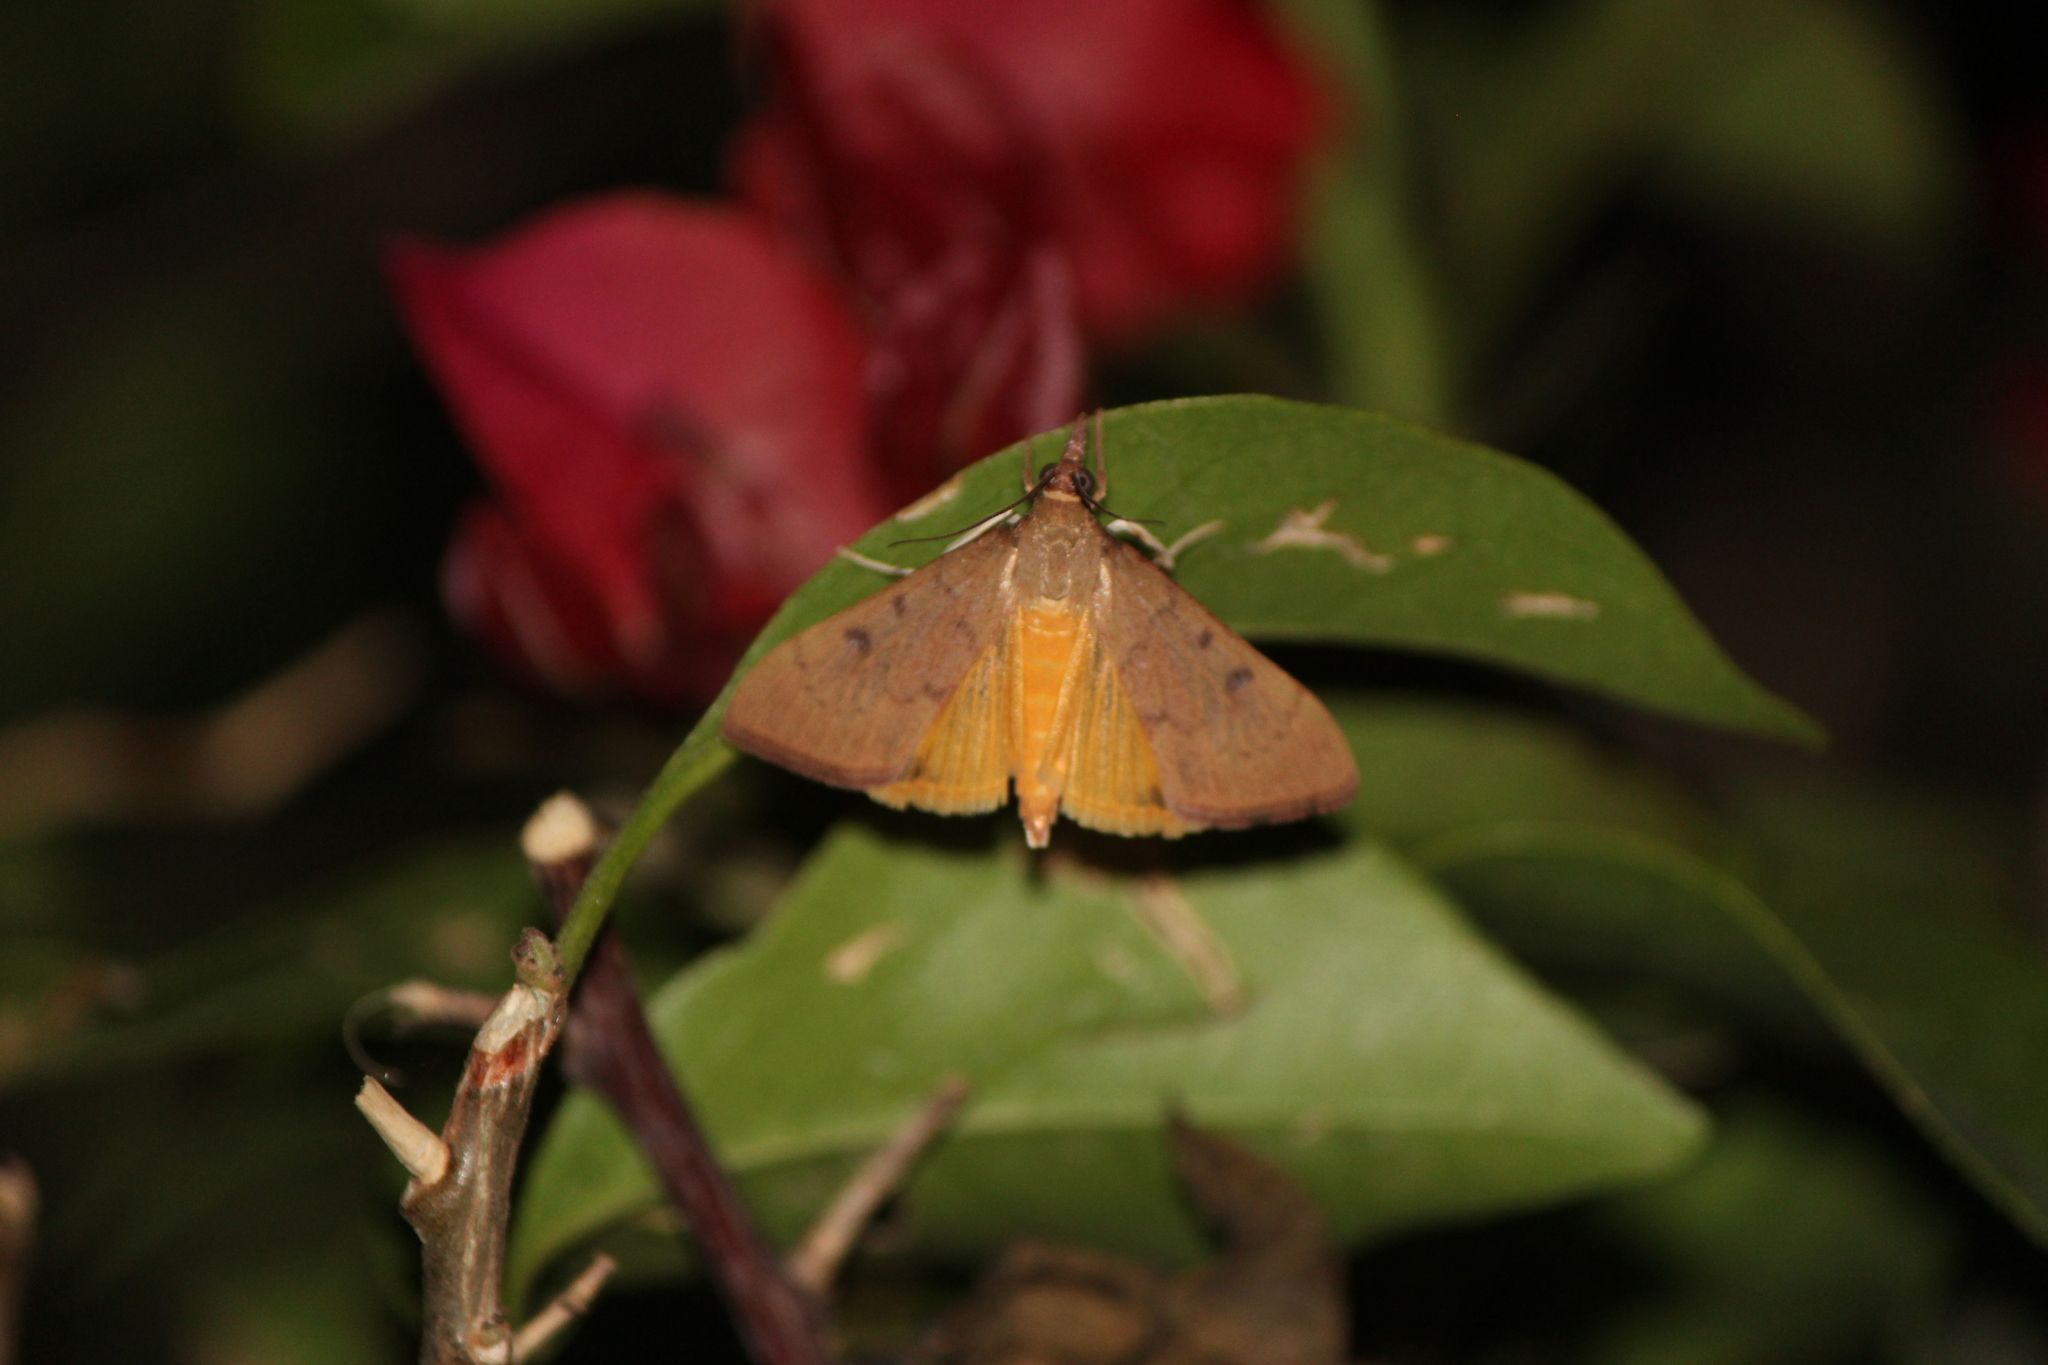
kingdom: Animalia
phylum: Arthropoda
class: Insecta
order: Lepidoptera
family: Crambidae
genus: Uresiphita
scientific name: Uresiphita reversalis
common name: Genista broom moth
